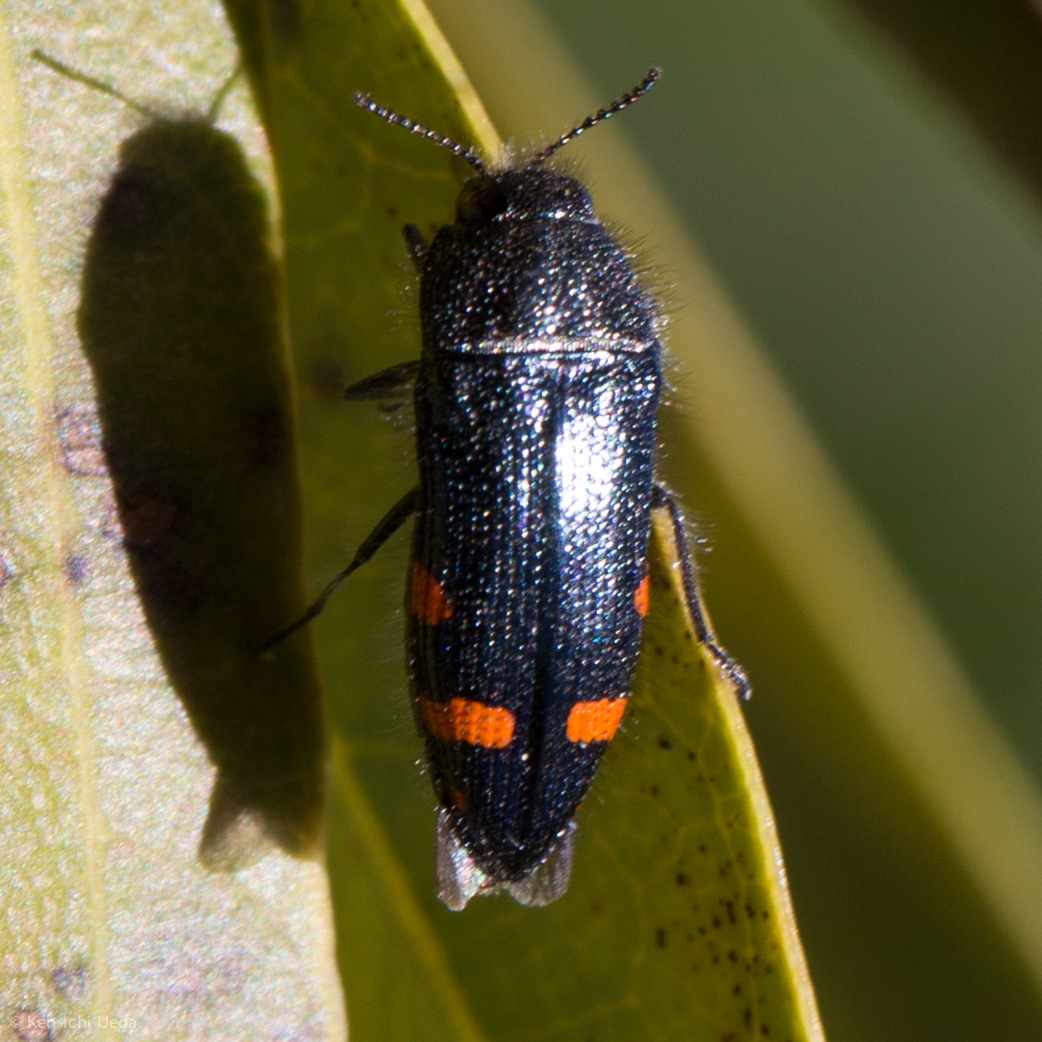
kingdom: Animalia
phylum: Arthropoda
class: Insecta
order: Coleoptera
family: Buprestidae
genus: Acmaeodera
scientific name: Acmaeodera mariposa
